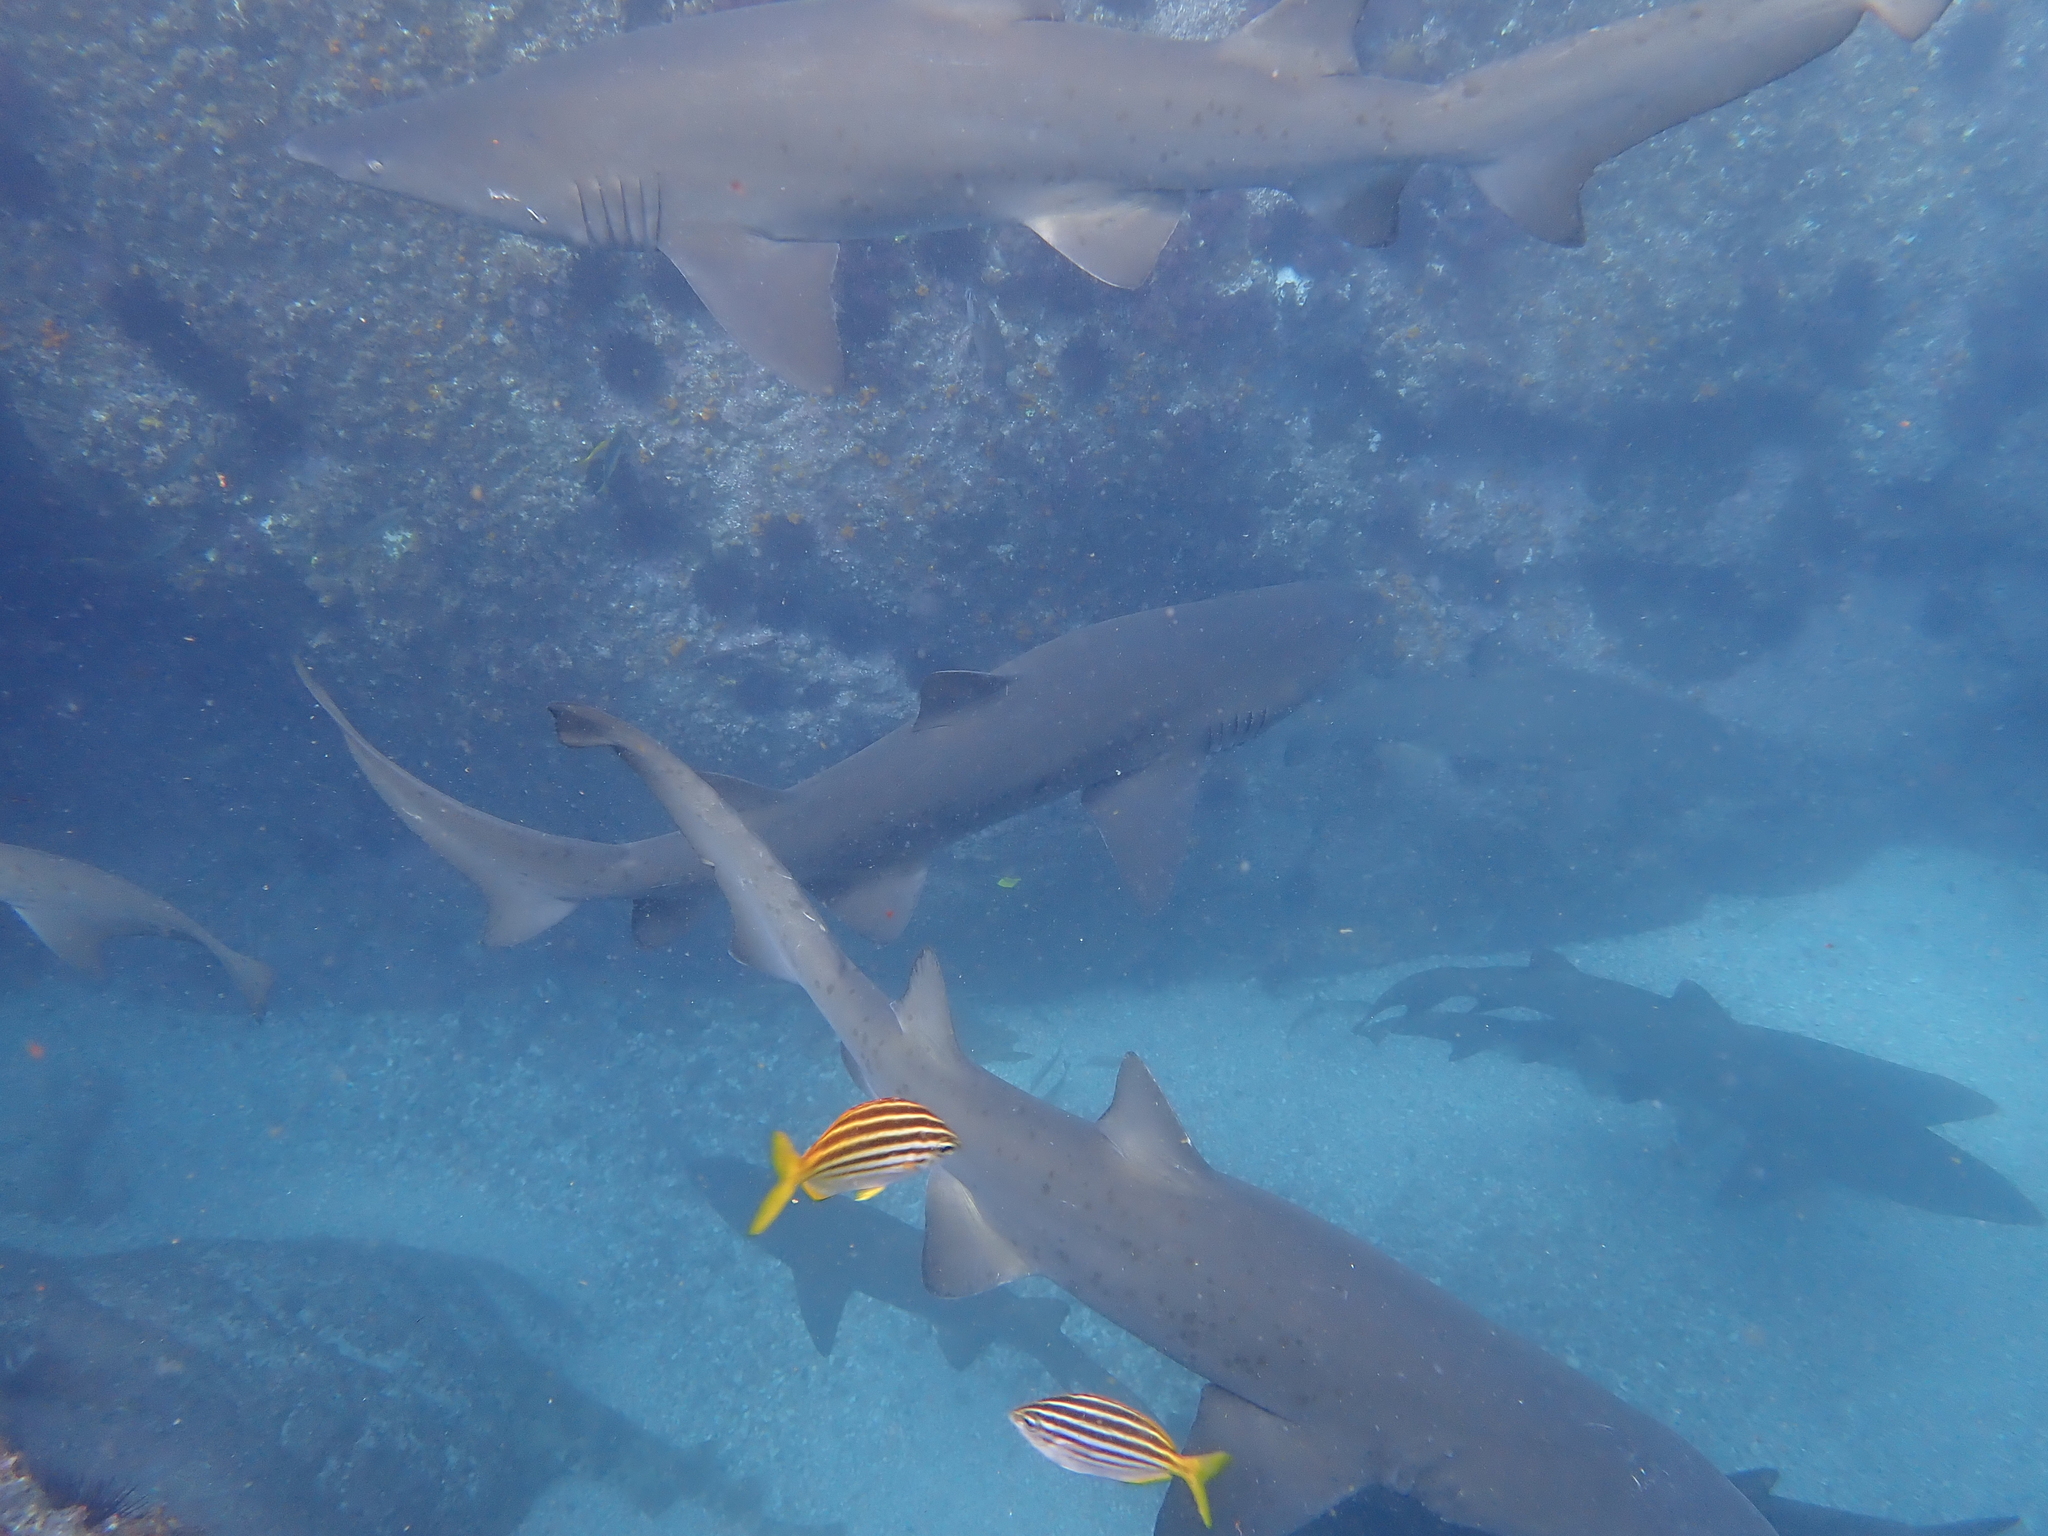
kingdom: Animalia
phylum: Chordata
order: Perciformes
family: Kyphosidae
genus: Atypichthys
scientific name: Atypichthys strigatus
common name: Australian mado
